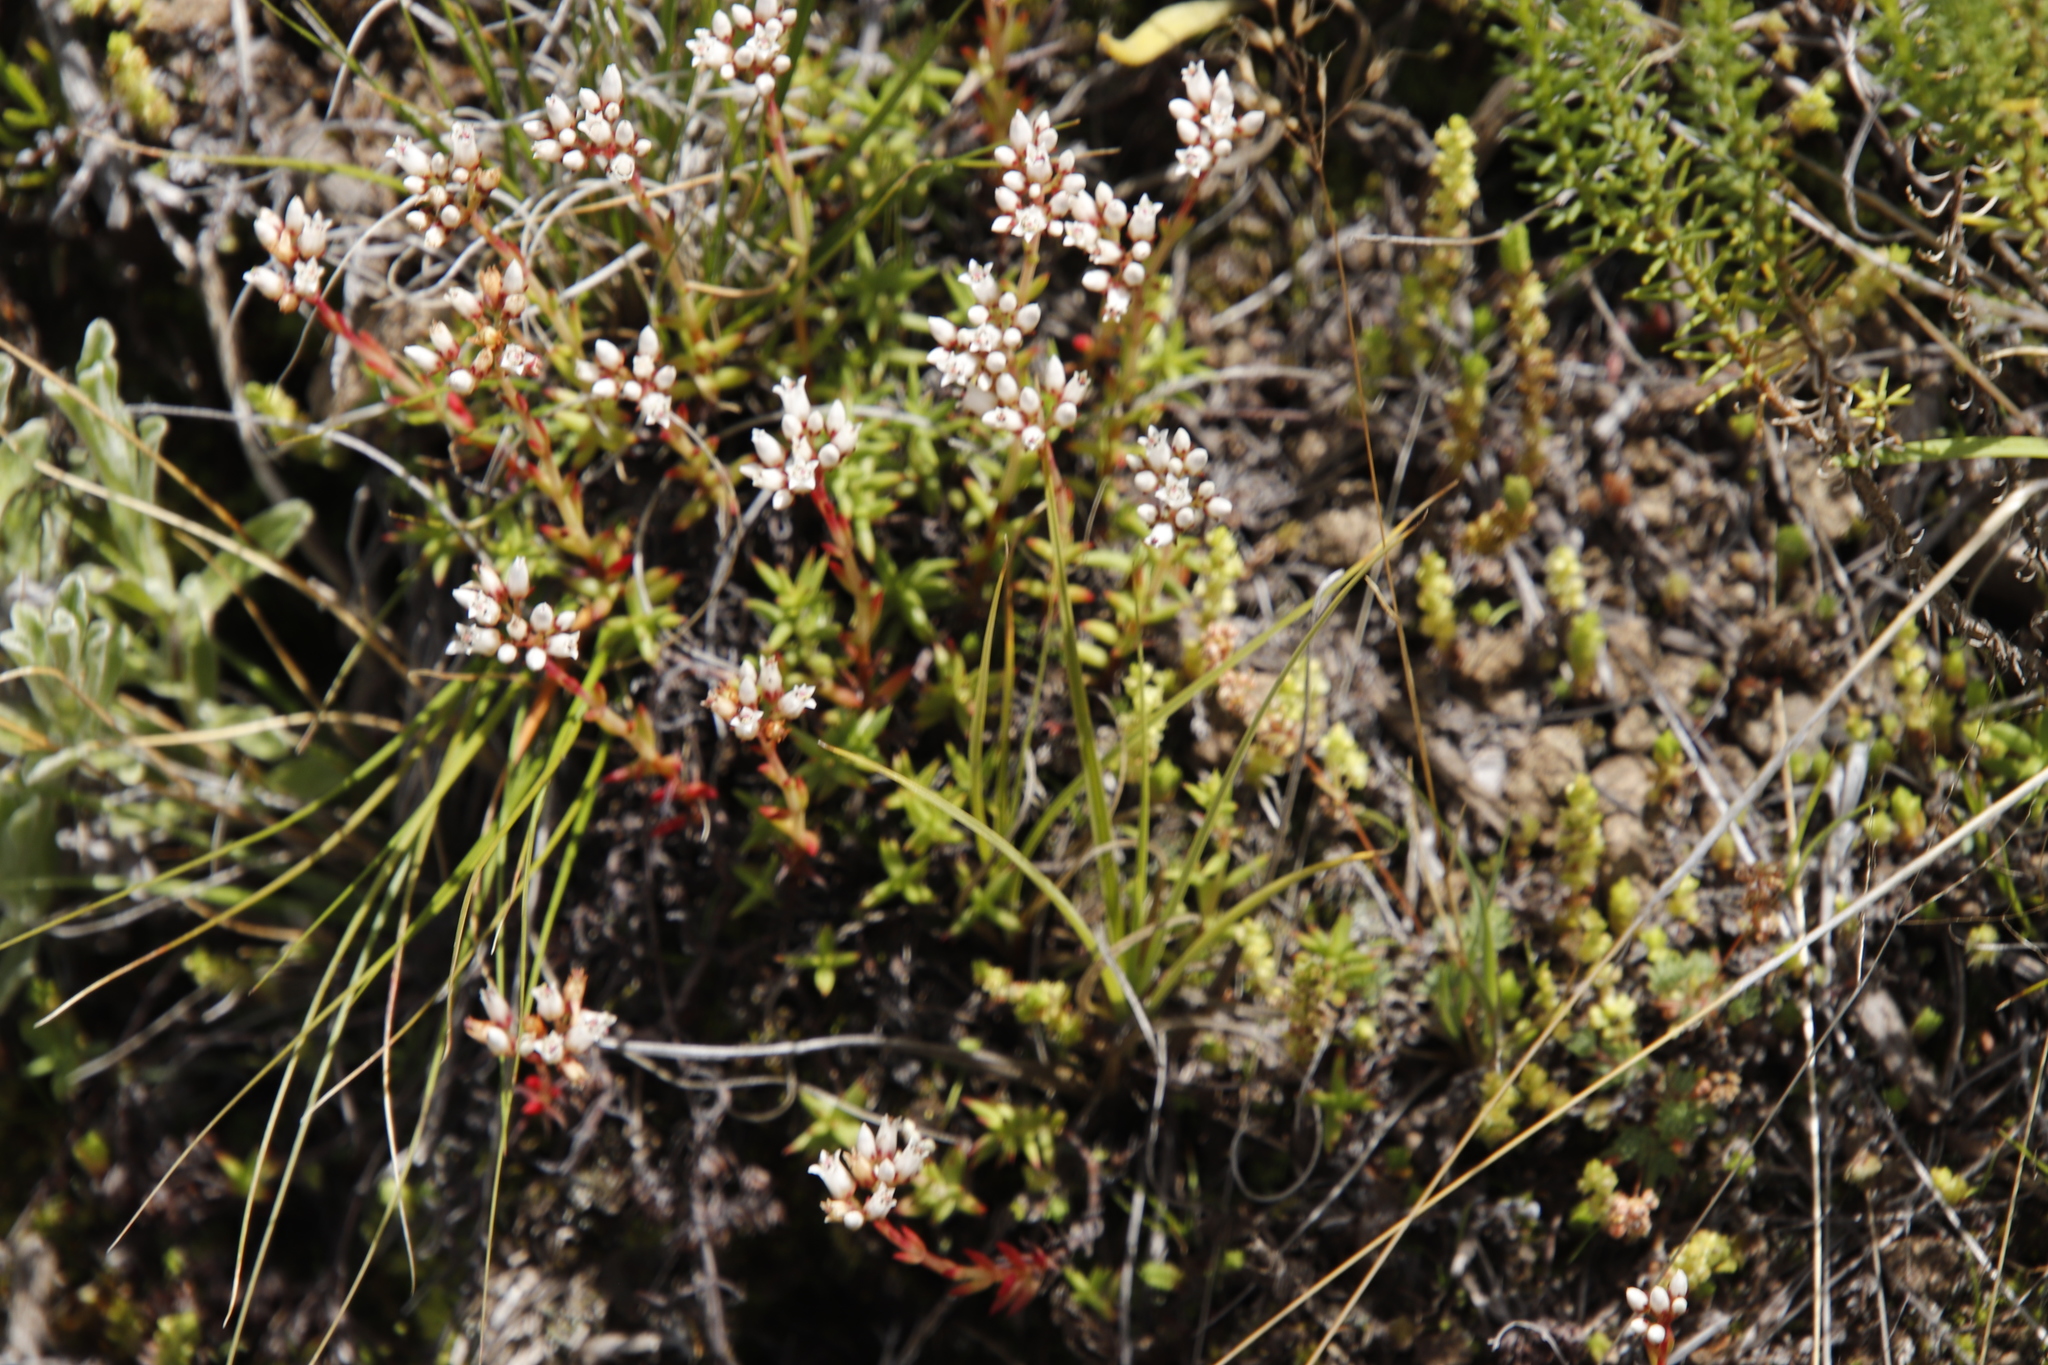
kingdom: Plantae
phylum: Tracheophyta
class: Magnoliopsida
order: Saxifragales
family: Crassulaceae
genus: Crassula
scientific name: Crassula dependens
